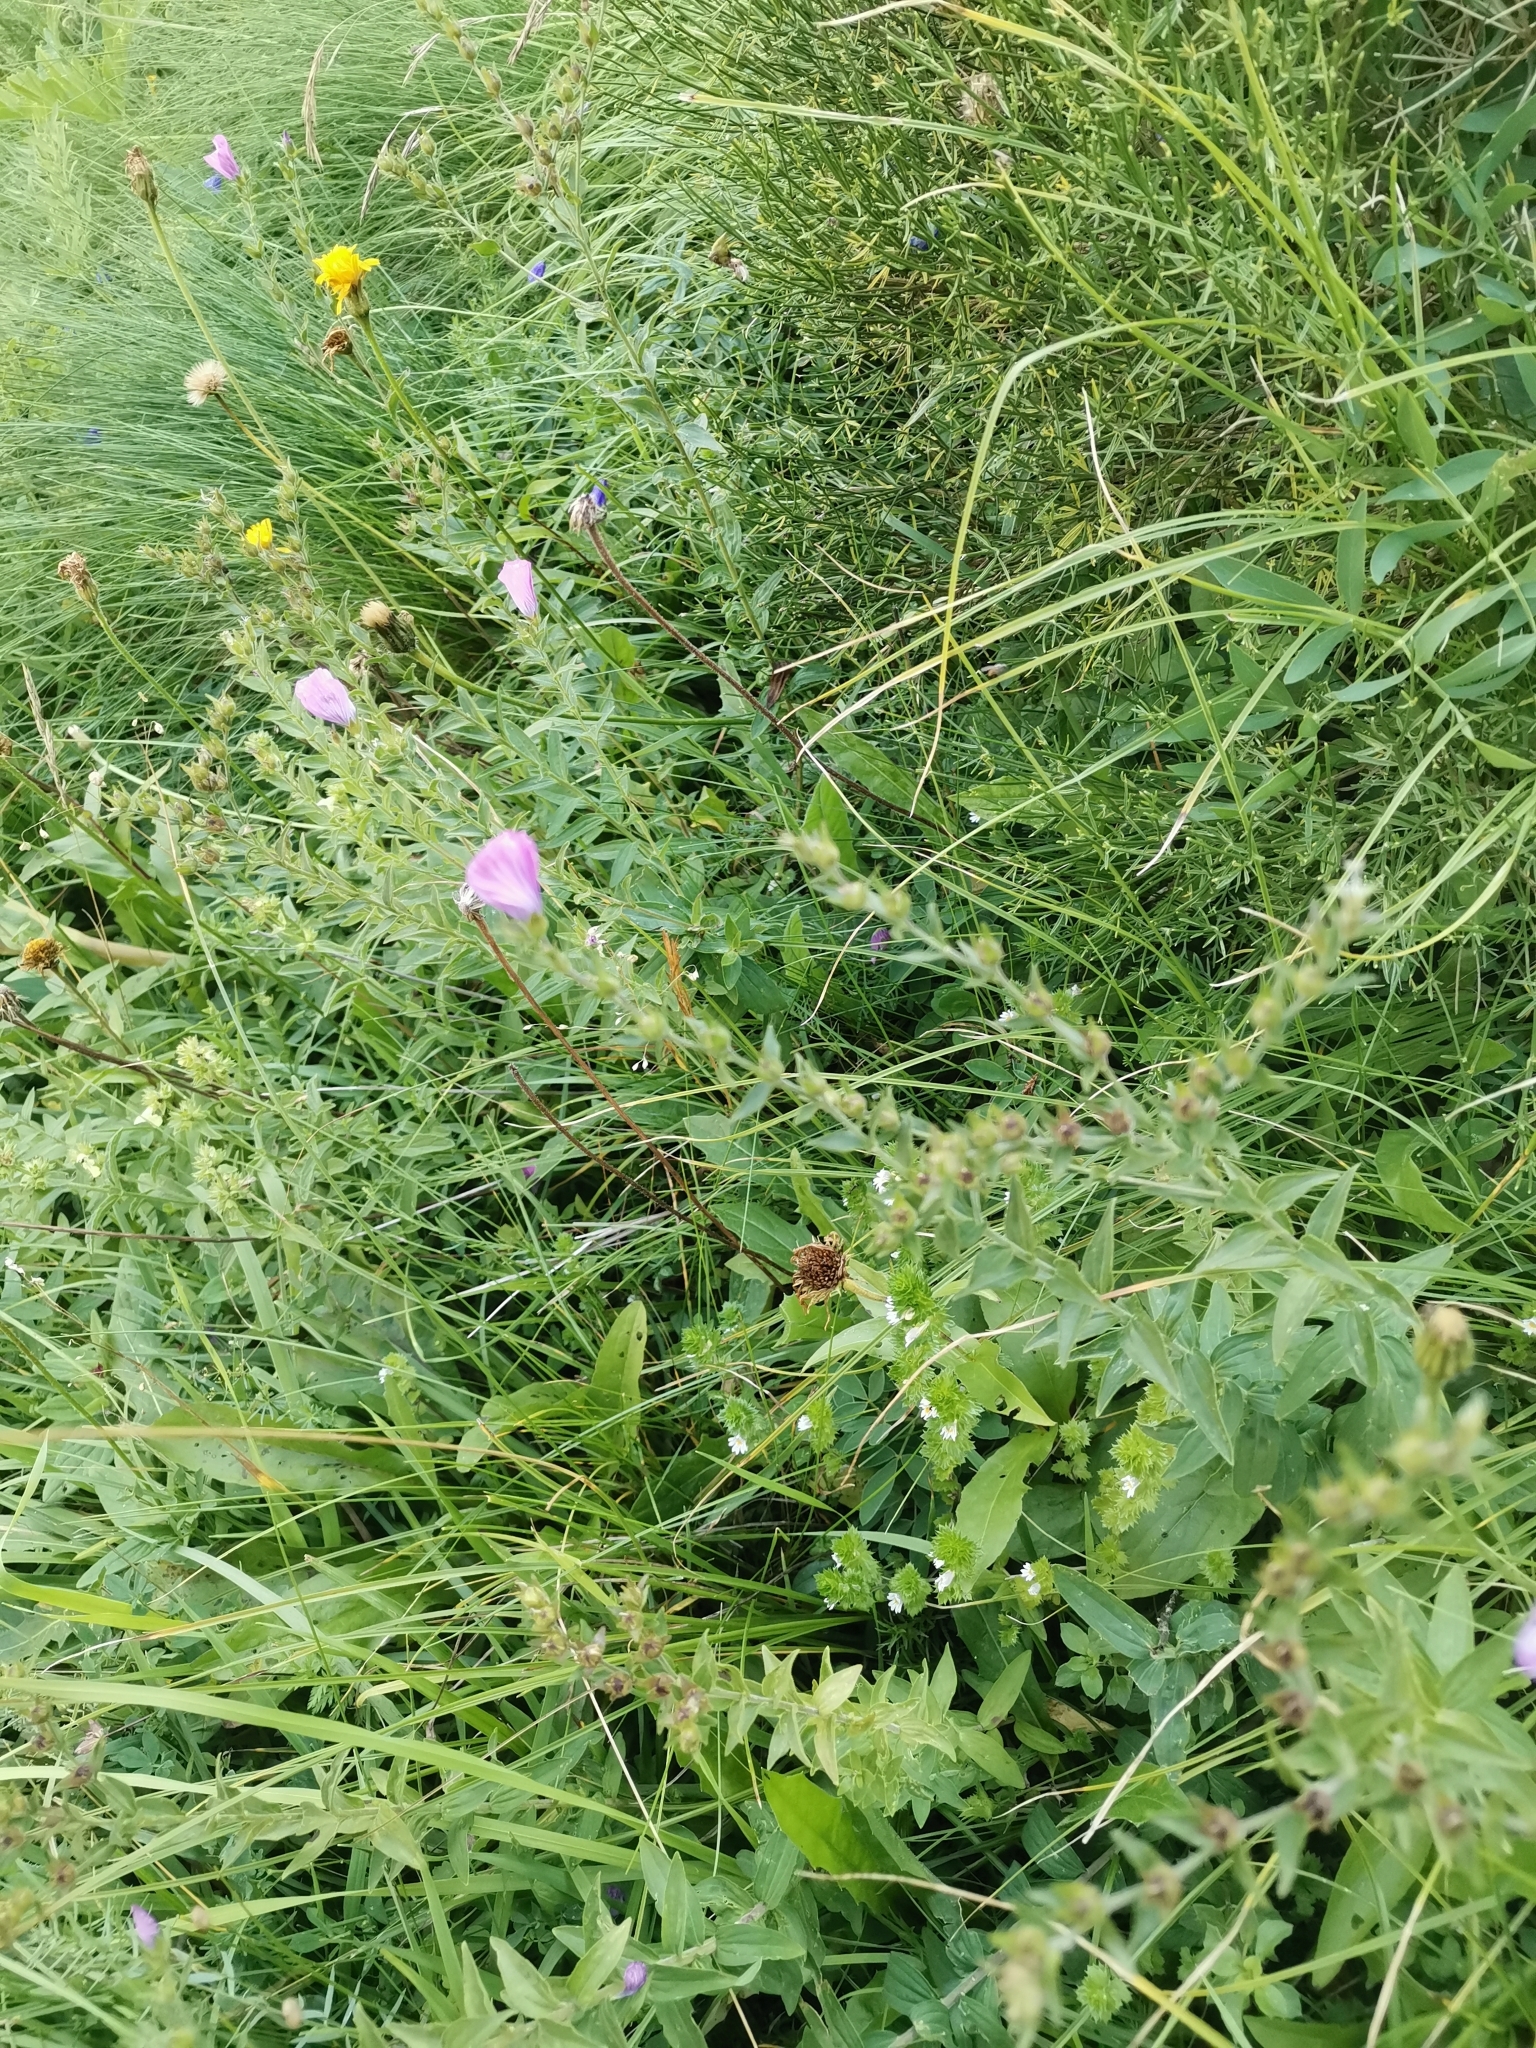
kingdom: Plantae
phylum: Tracheophyta
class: Magnoliopsida
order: Malpighiales
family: Linaceae
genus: Linum
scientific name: Linum viscosum
